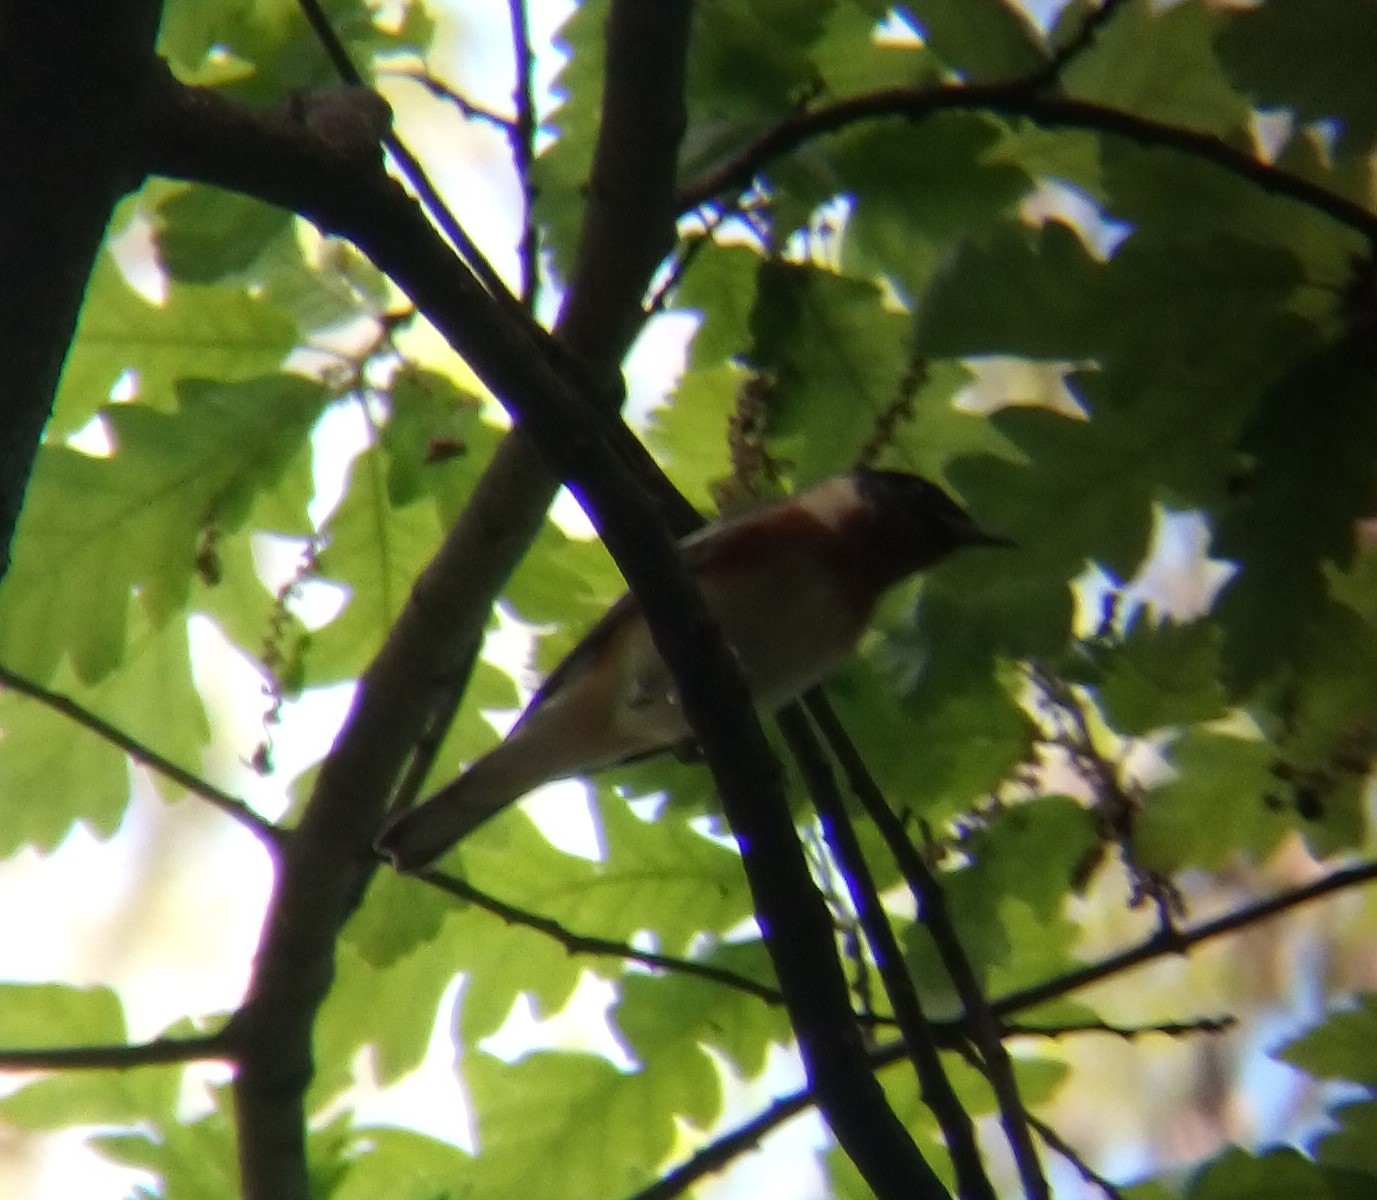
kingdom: Animalia
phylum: Chordata
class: Aves
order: Passeriformes
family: Parulidae
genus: Setophaga
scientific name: Setophaga castanea
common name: Bay-breasted warbler
